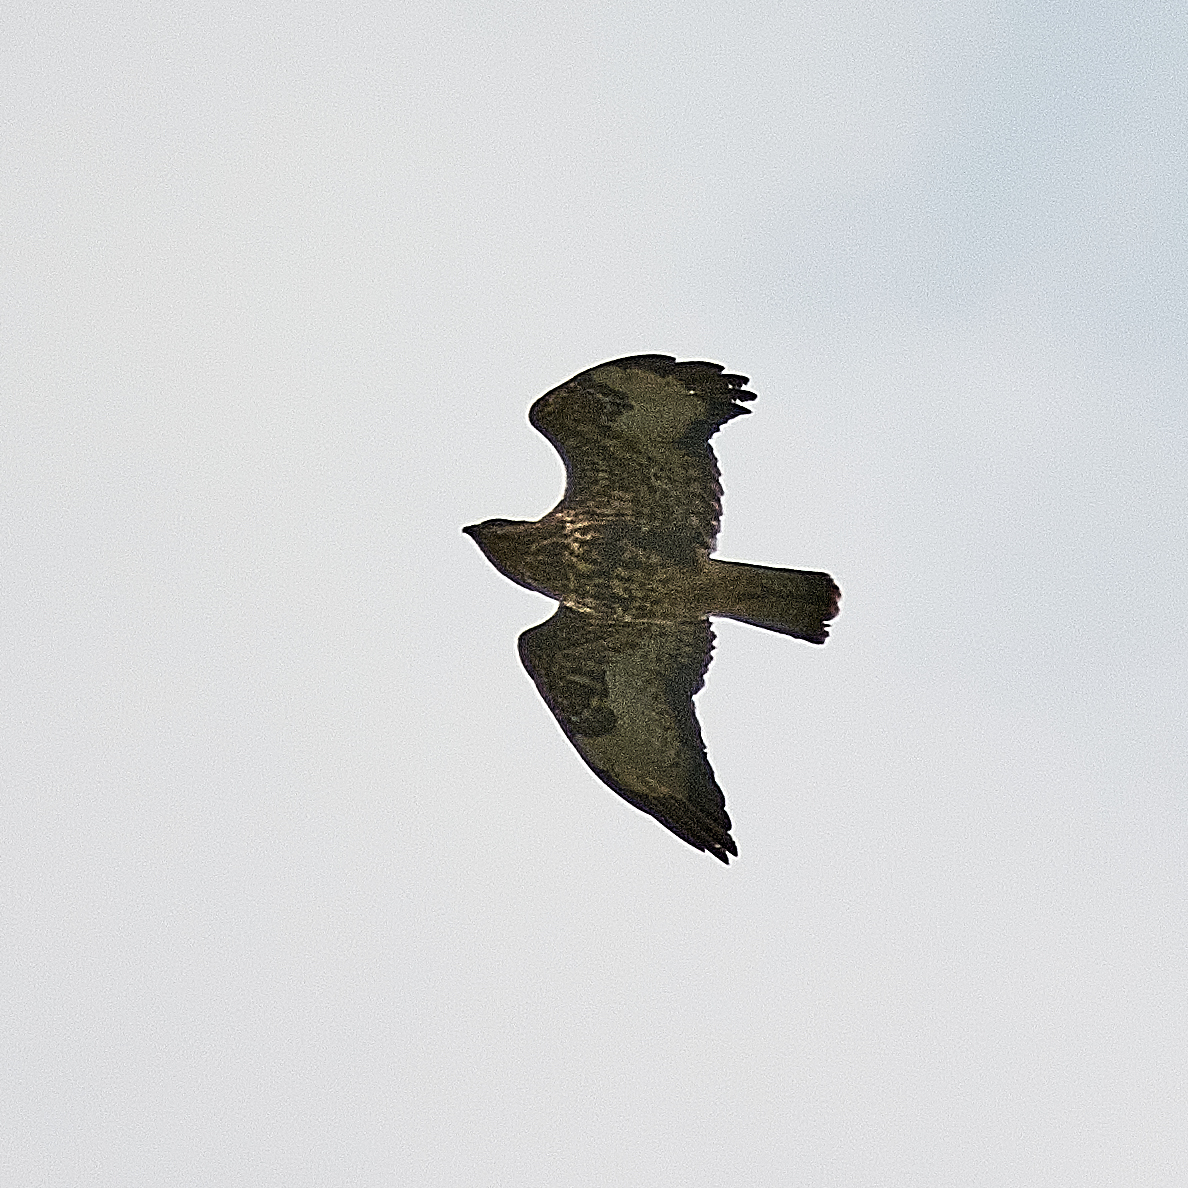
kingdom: Animalia
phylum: Chordata
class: Aves
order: Accipitriformes
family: Accipitridae
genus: Buteo
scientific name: Buteo buteo
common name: Common buzzard
